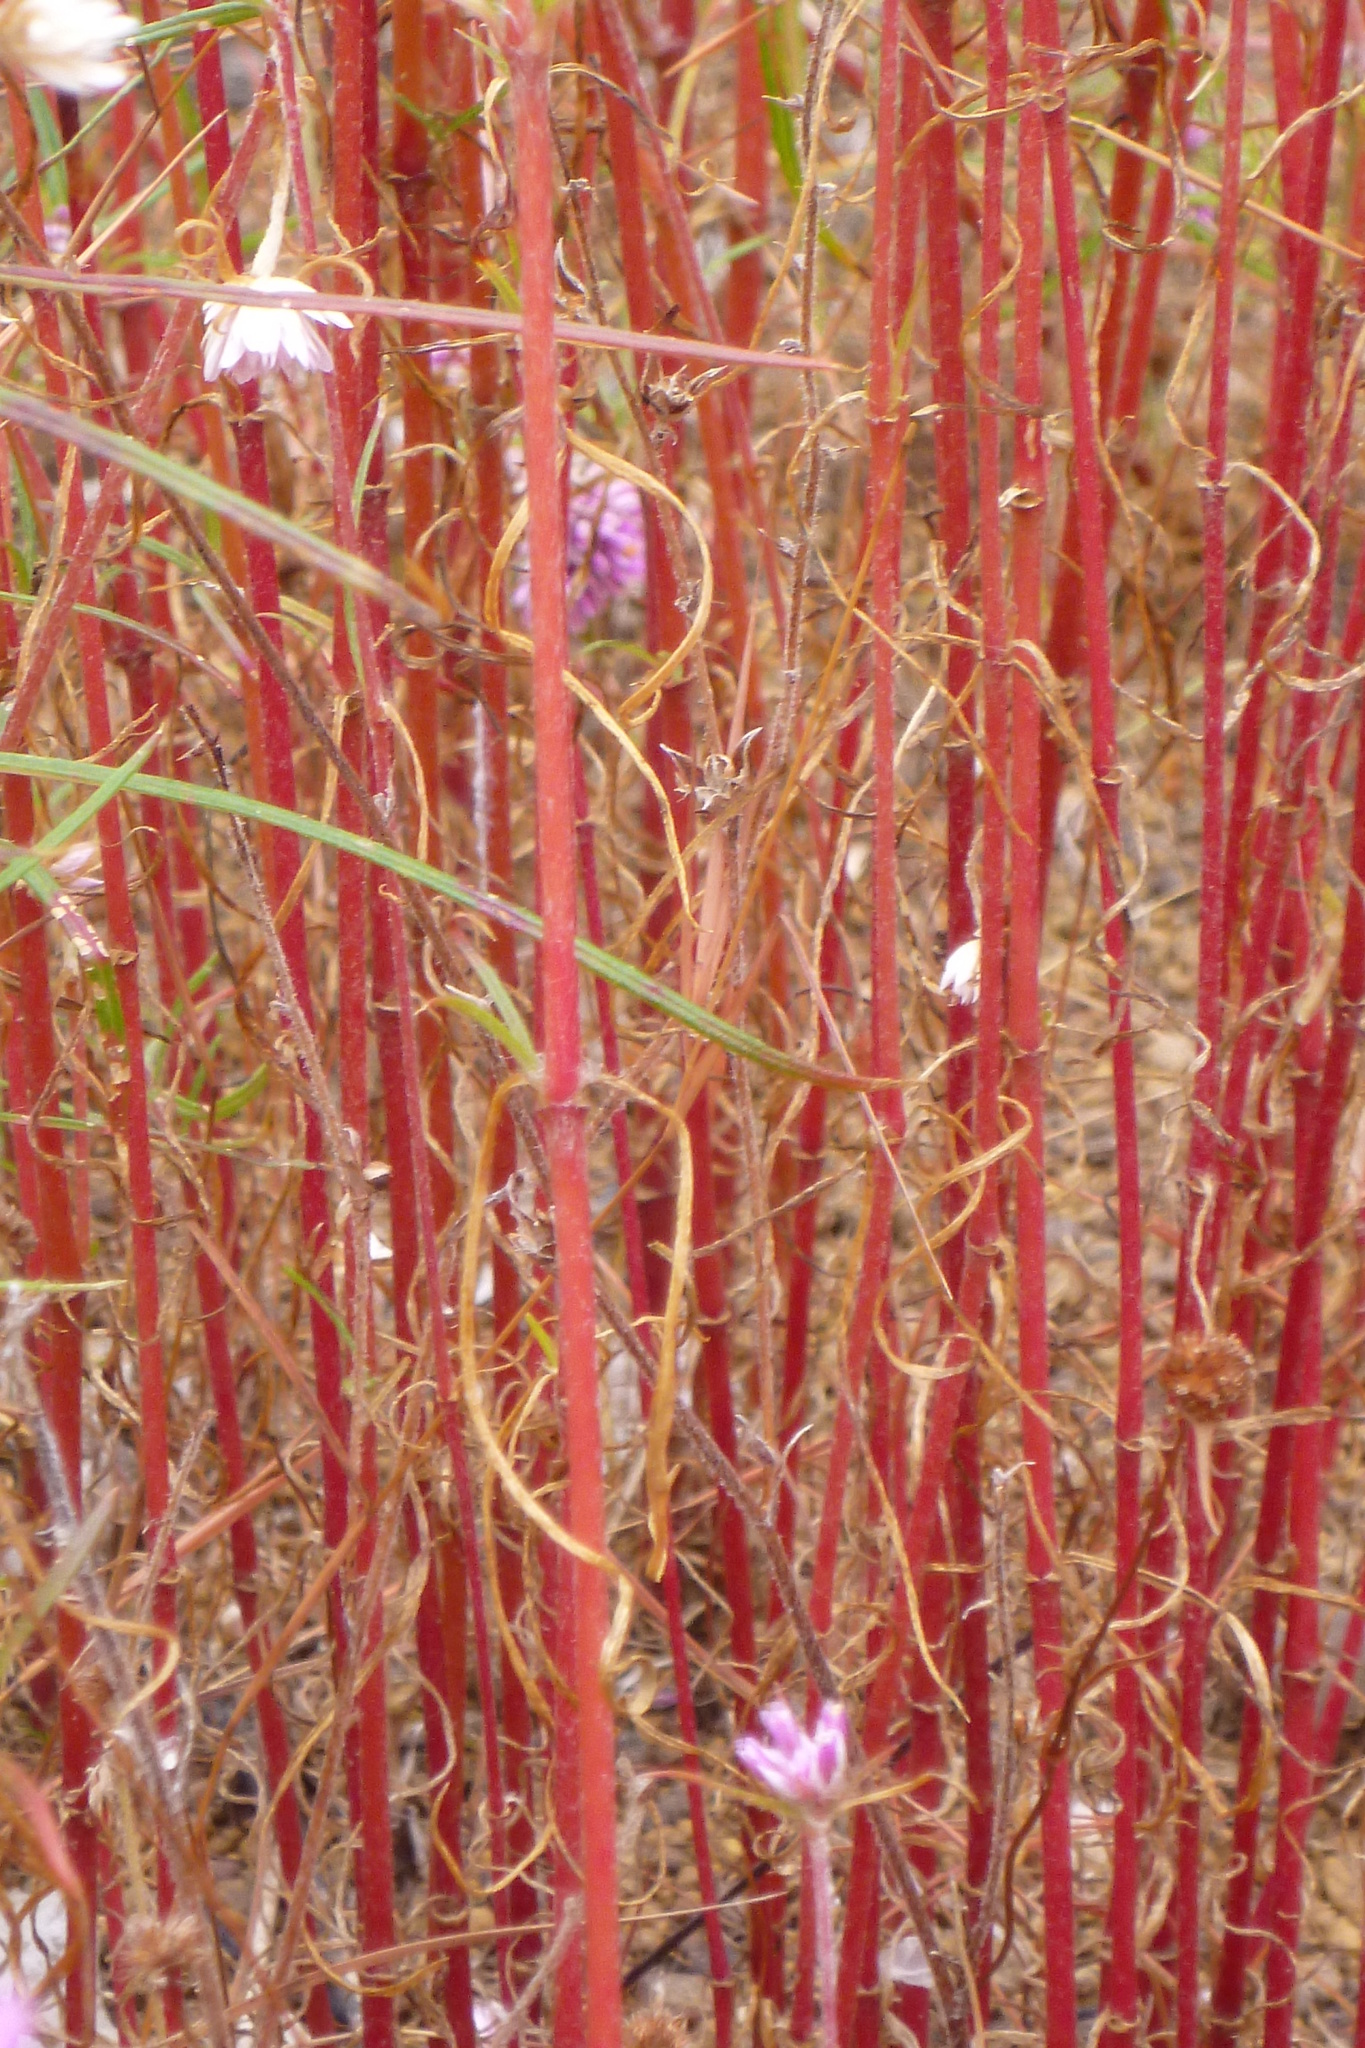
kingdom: Plantae
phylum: Tracheophyta
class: Magnoliopsida
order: Caryophyllales
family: Amaranthaceae
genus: Gomphrena
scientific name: Gomphrena canescens
